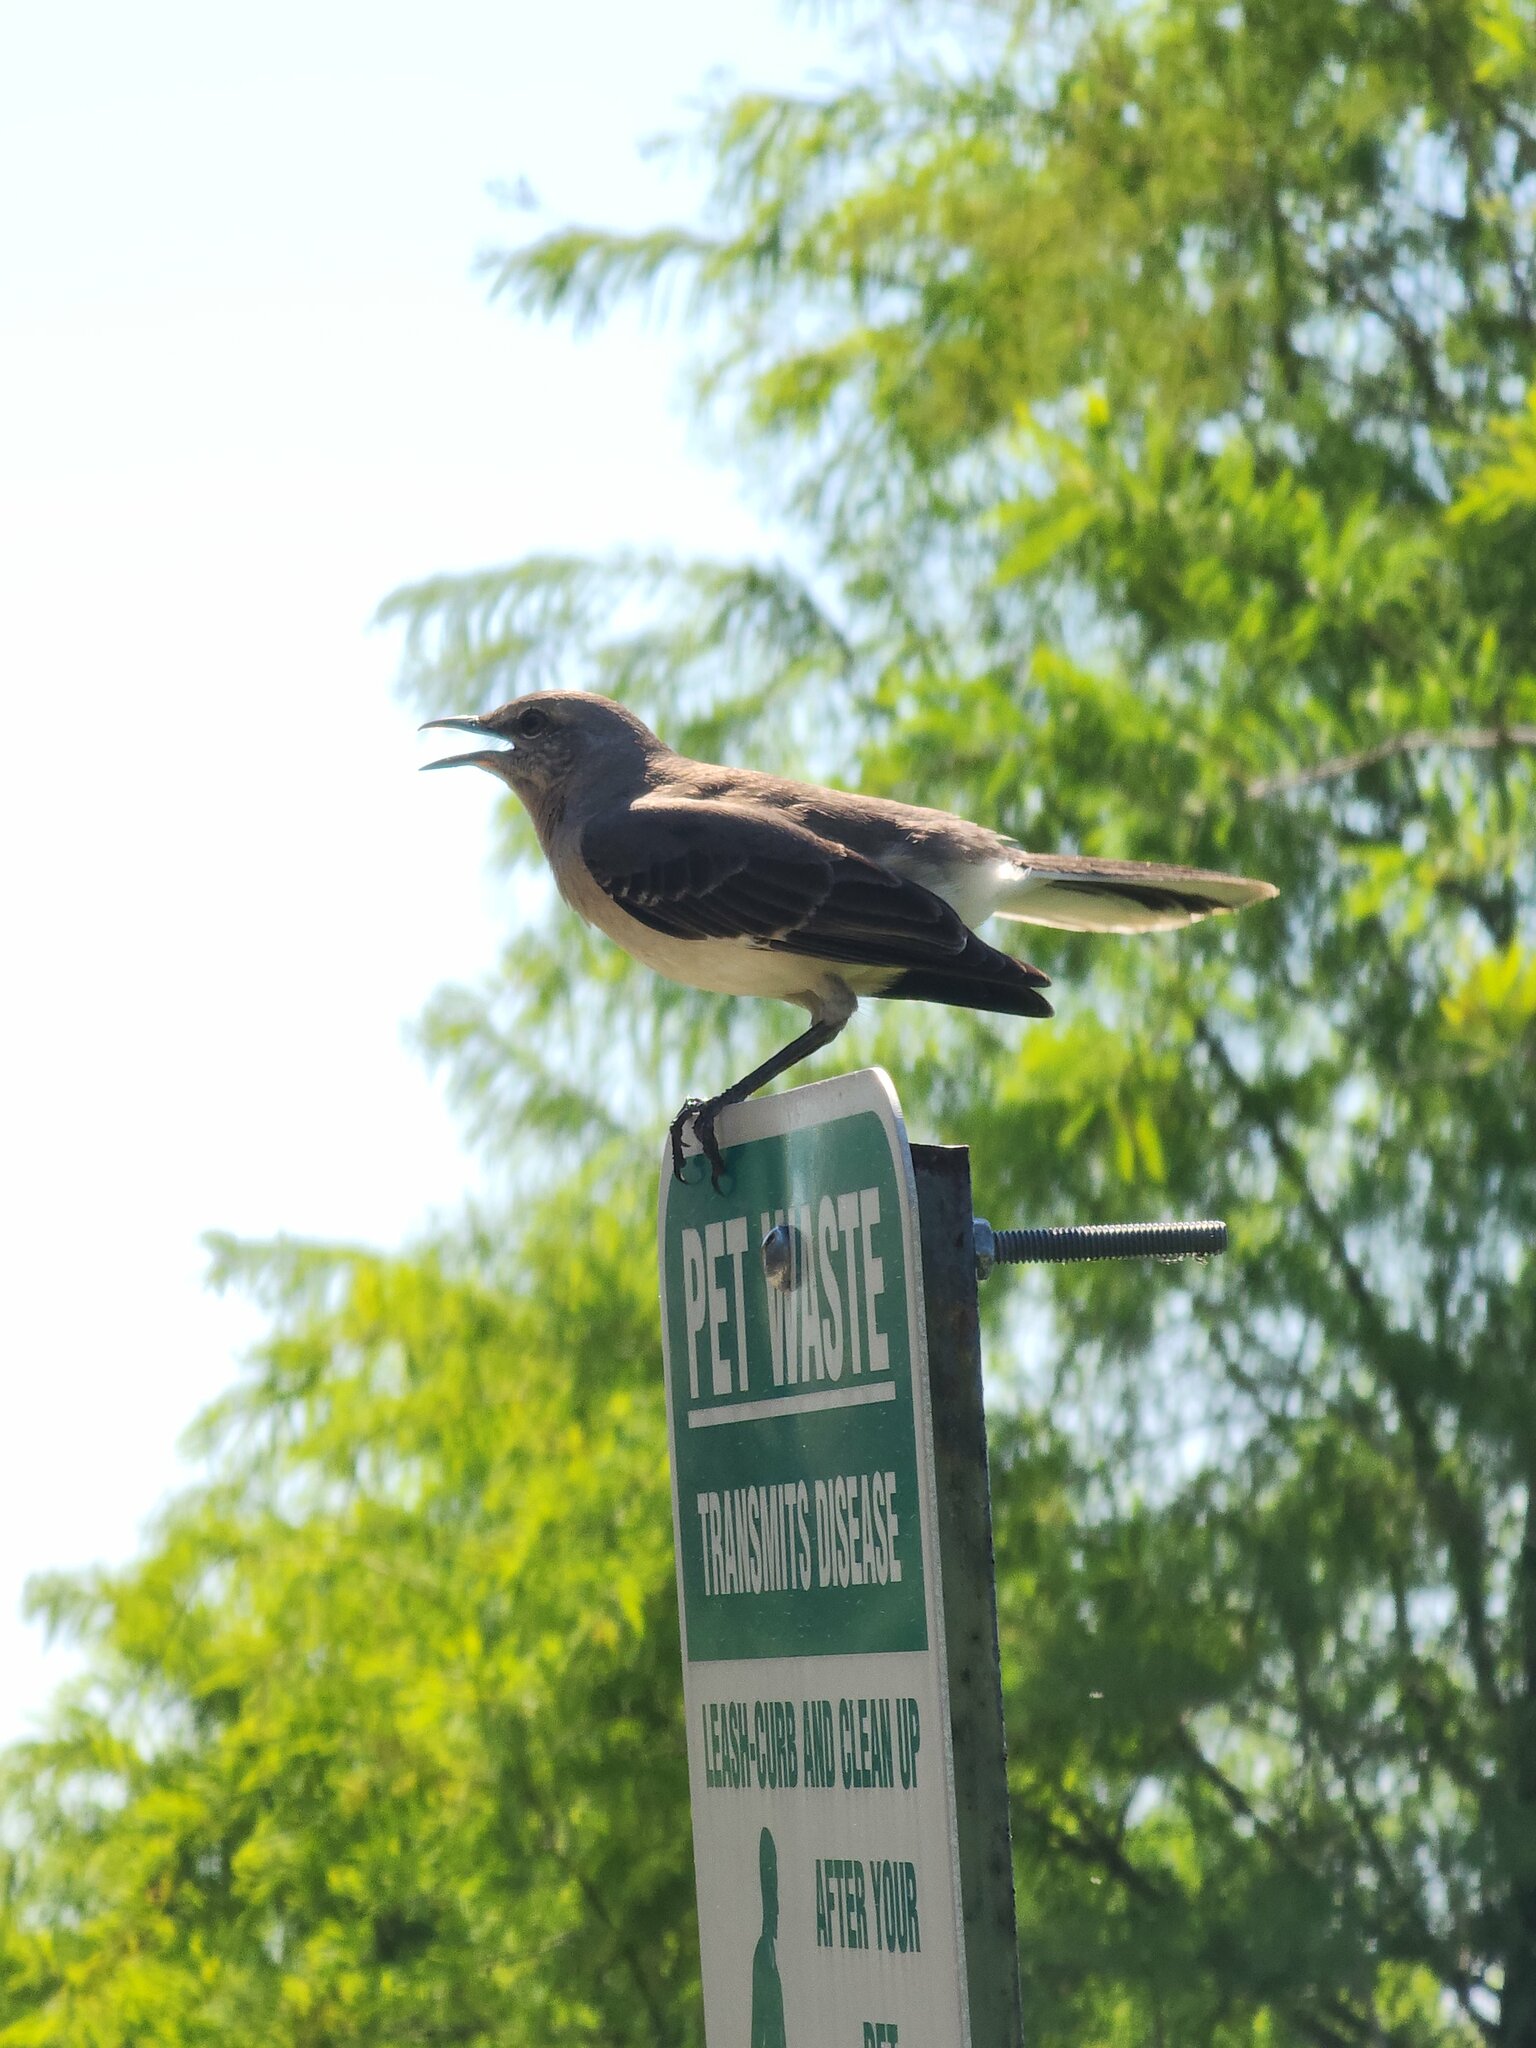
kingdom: Animalia
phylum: Chordata
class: Aves
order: Passeriformes
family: Mimidae
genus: Mimus
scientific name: Mimus polyglottos
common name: Northern mockingbird
